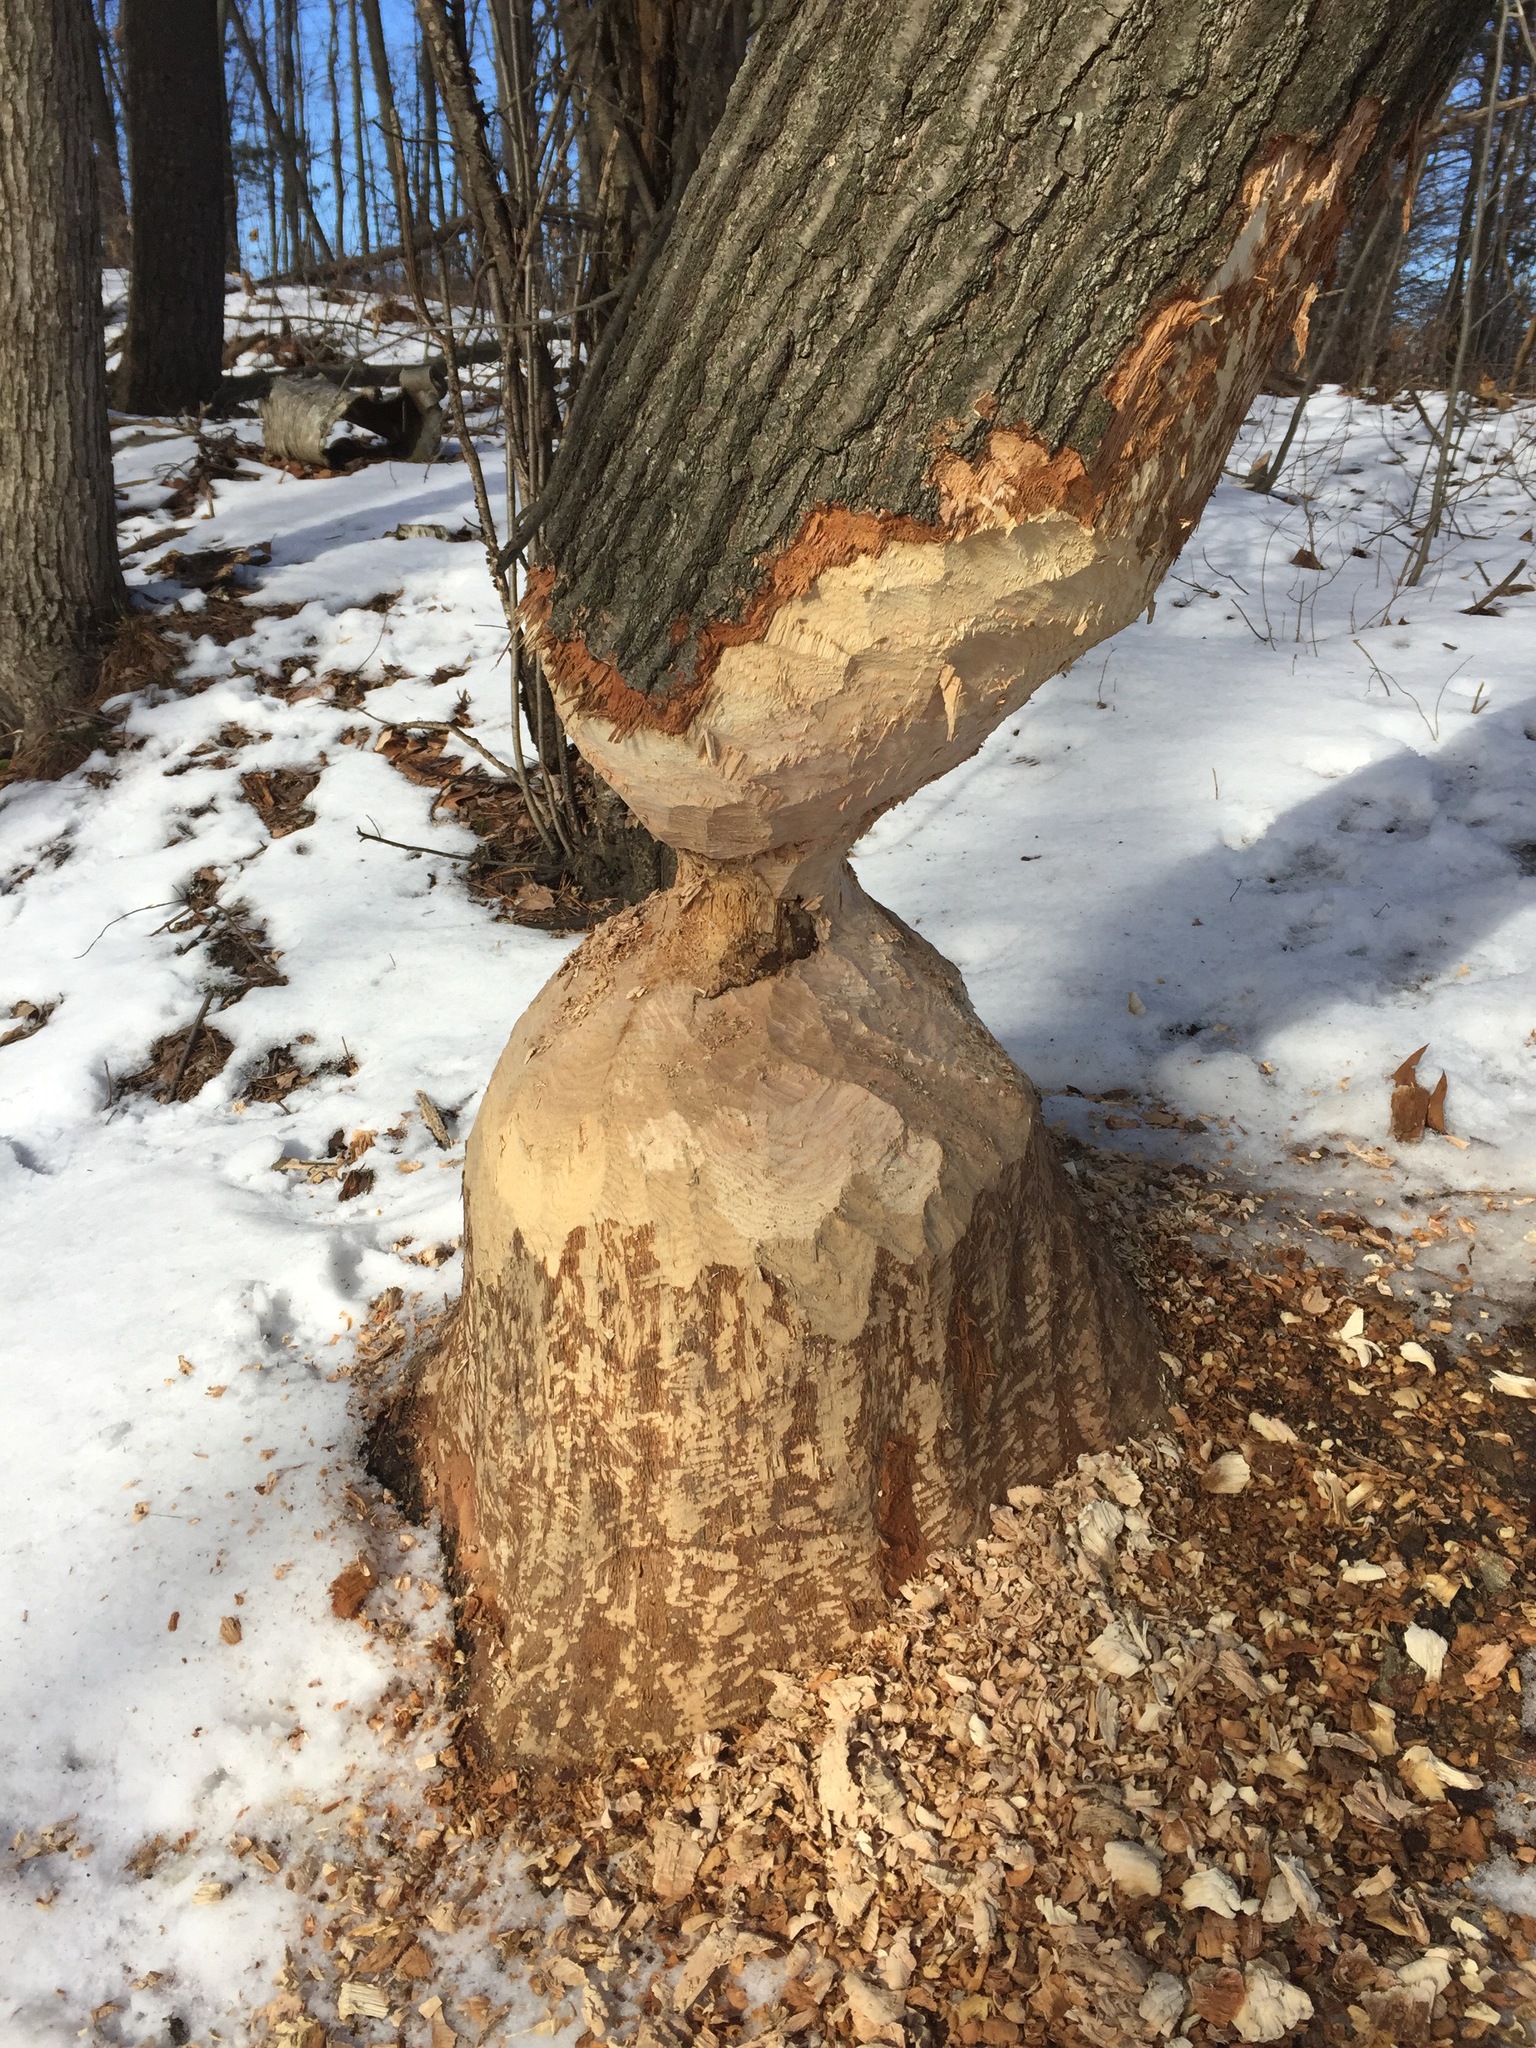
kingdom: Animalia
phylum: Chordata
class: Mammalia
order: Rodentia
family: Castoridae
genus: Castor
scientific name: Castor canadensis
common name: American beaver
